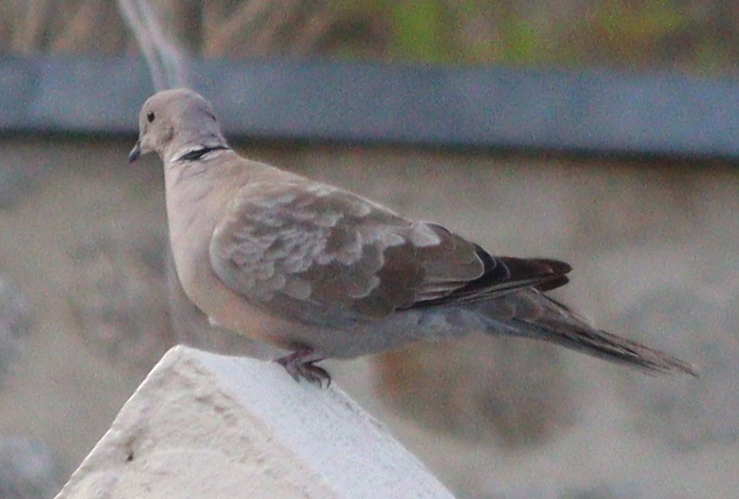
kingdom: Animalia
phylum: Chordata
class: Aves
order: Columbiformes
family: Columbidae
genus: Streptopelia
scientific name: Streptopelia decaocto
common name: Eurasian collared dove
